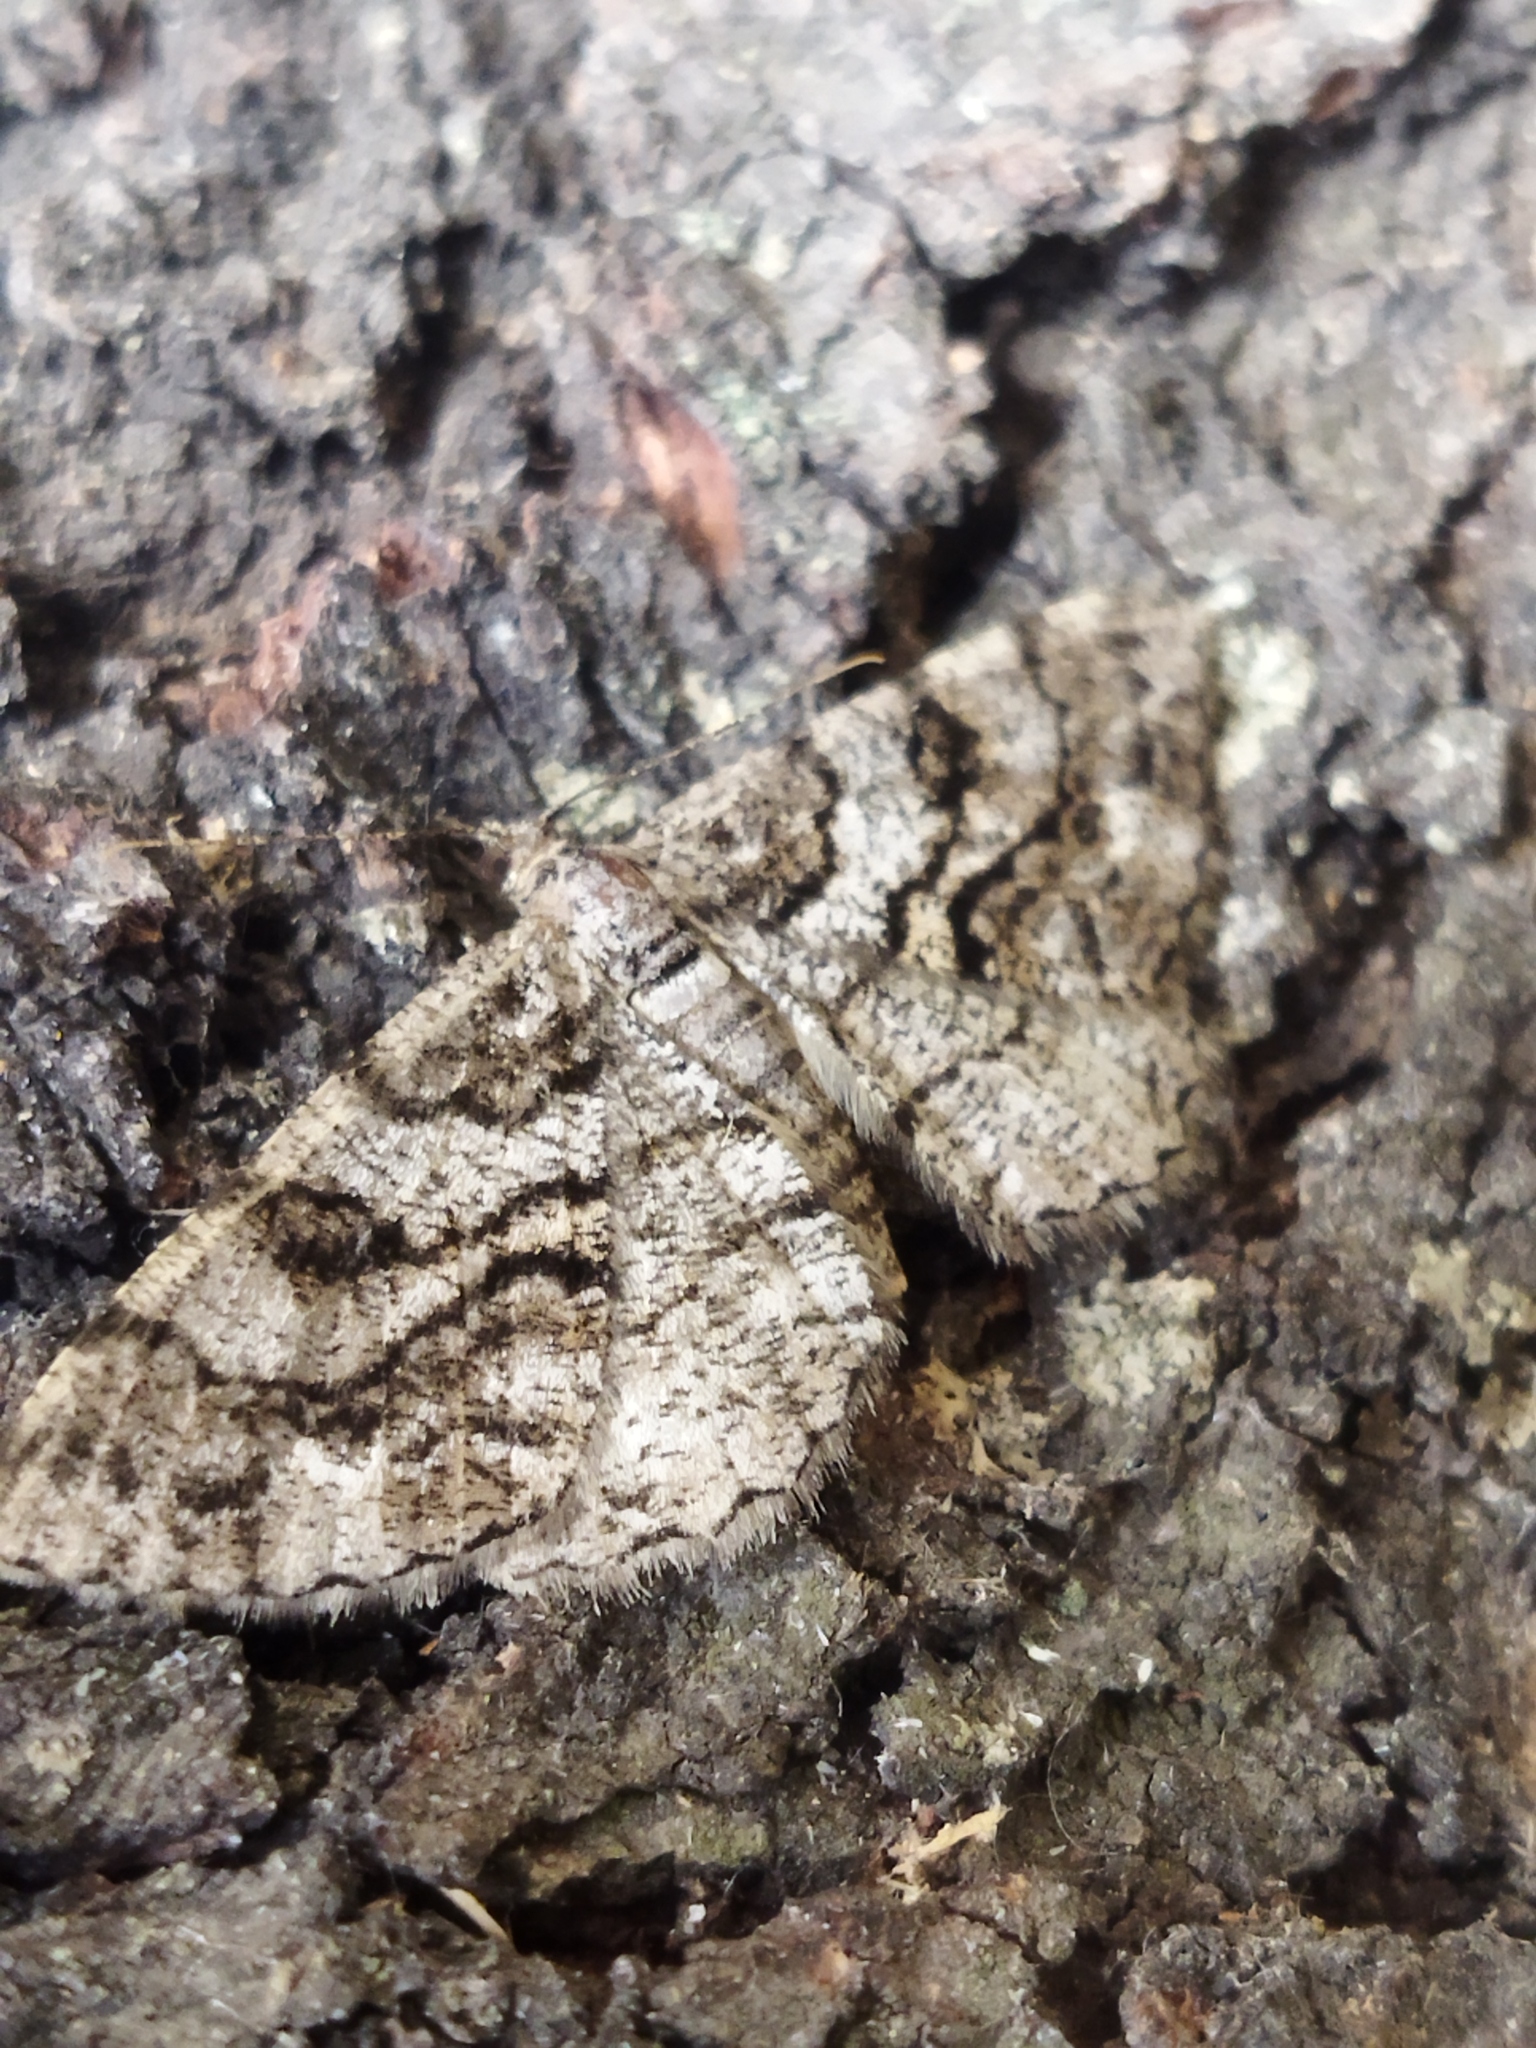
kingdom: Animalia
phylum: Arthropoda
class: Insecta
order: Lepidoptera
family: Geometridae
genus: Peribatodes
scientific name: Peribatodes secundaria
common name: Feathered beauty
